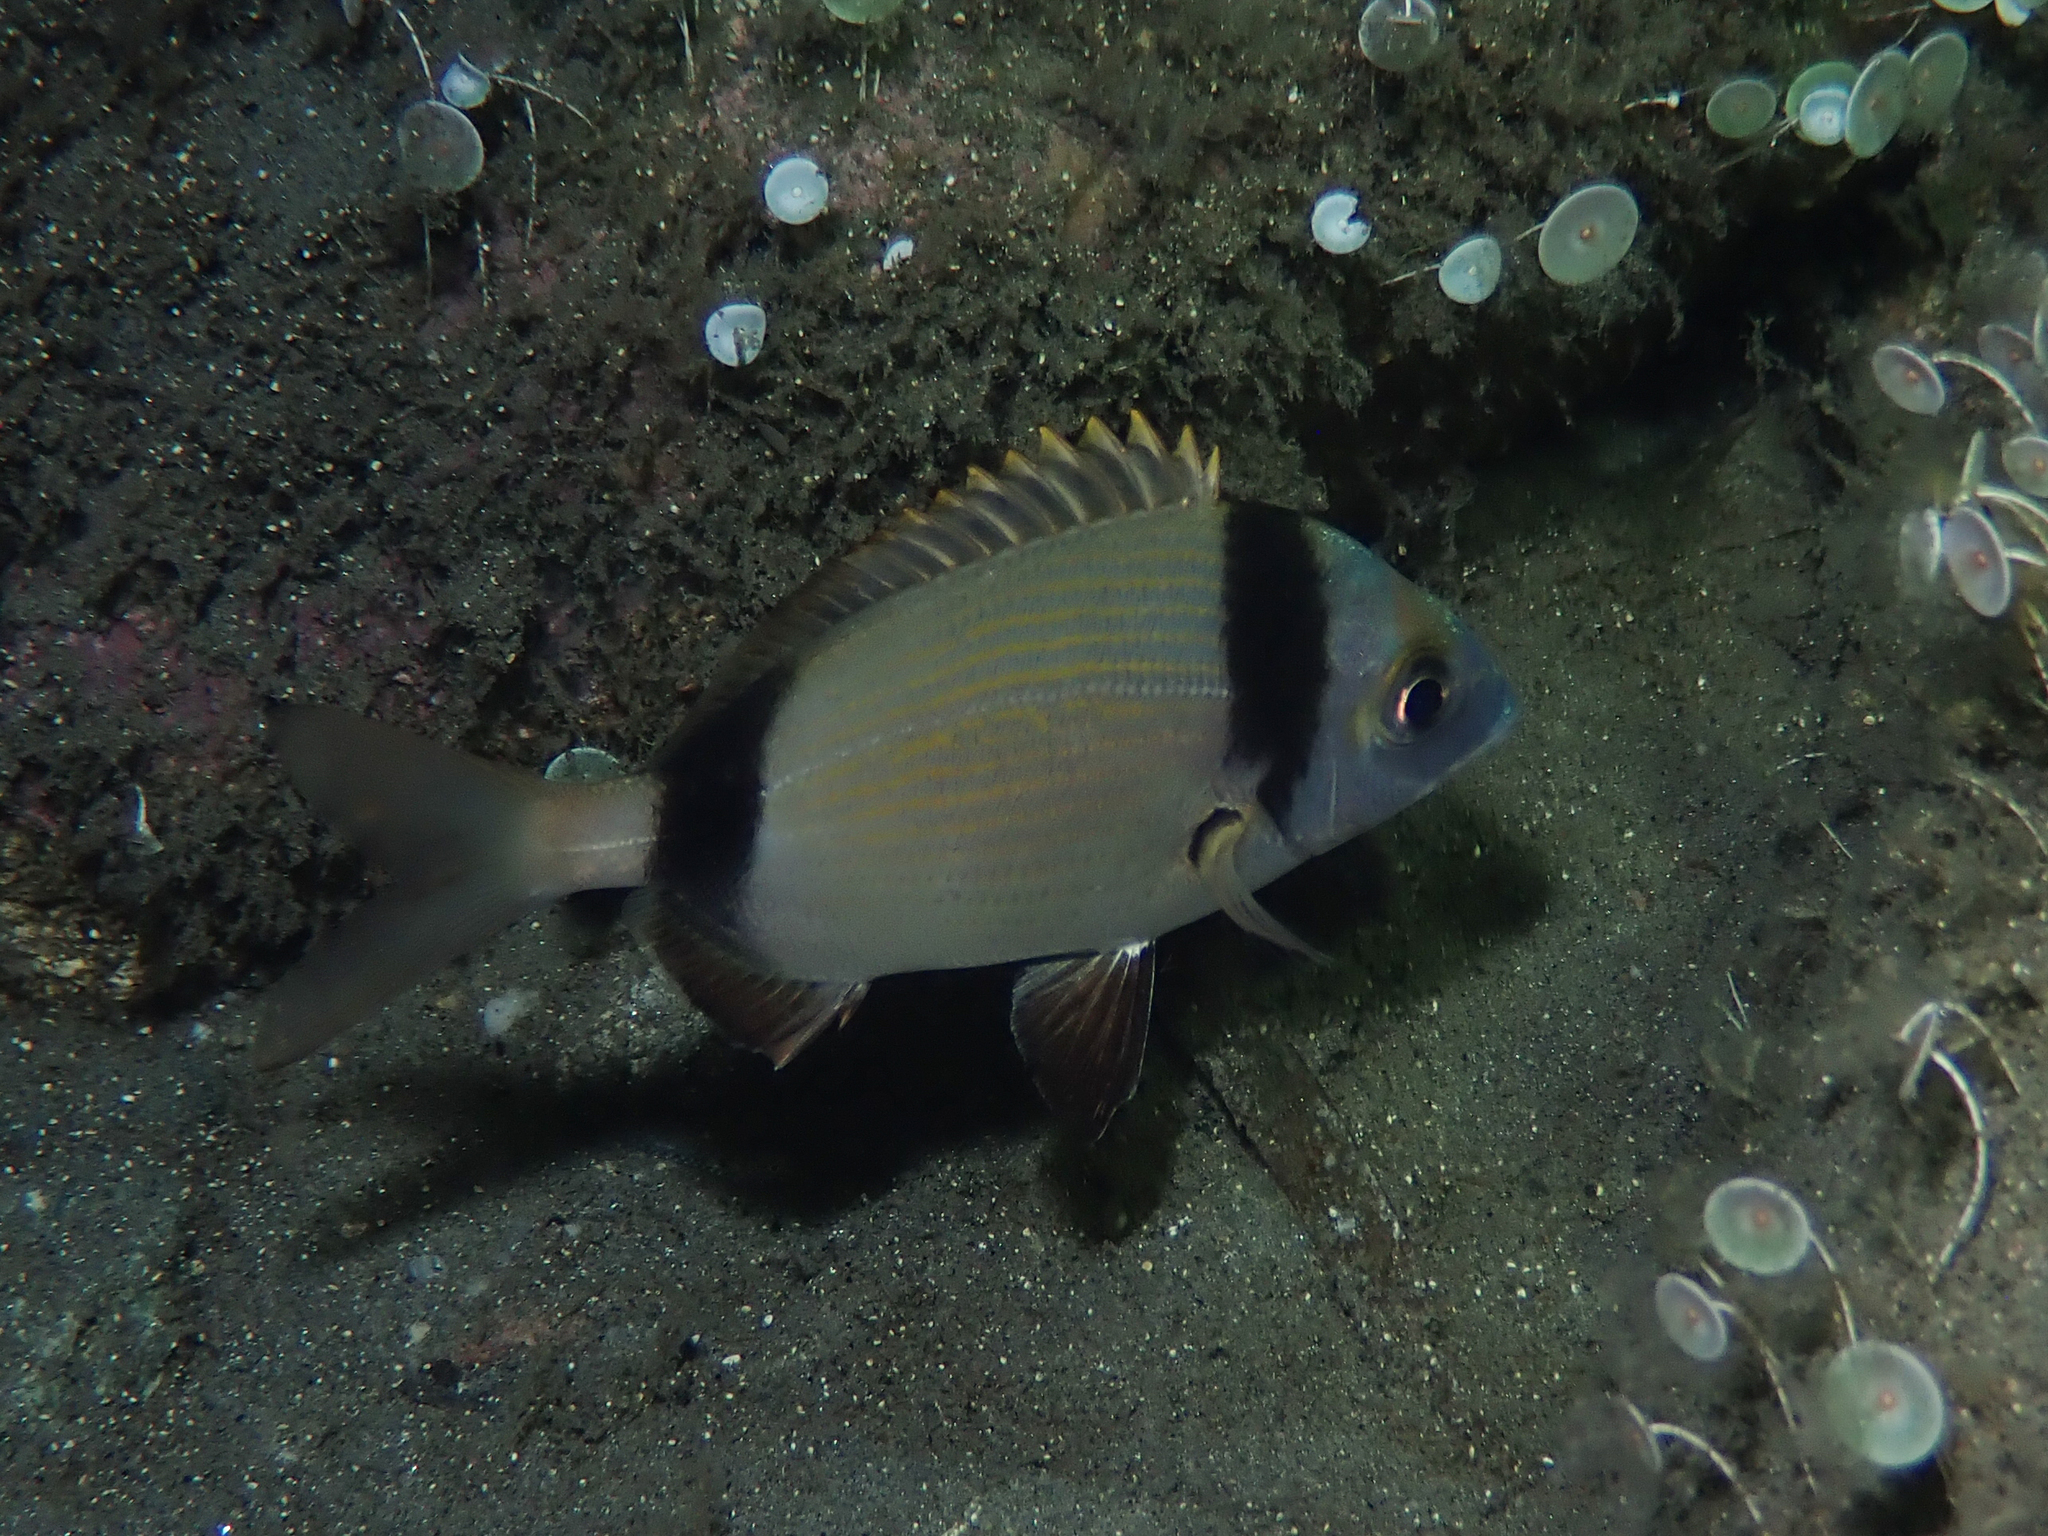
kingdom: Animalia
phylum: Chordata
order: Perciformes
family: Sparidae
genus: Diplodus
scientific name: Diplodus vulgaris
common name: Common two-banded seabream
